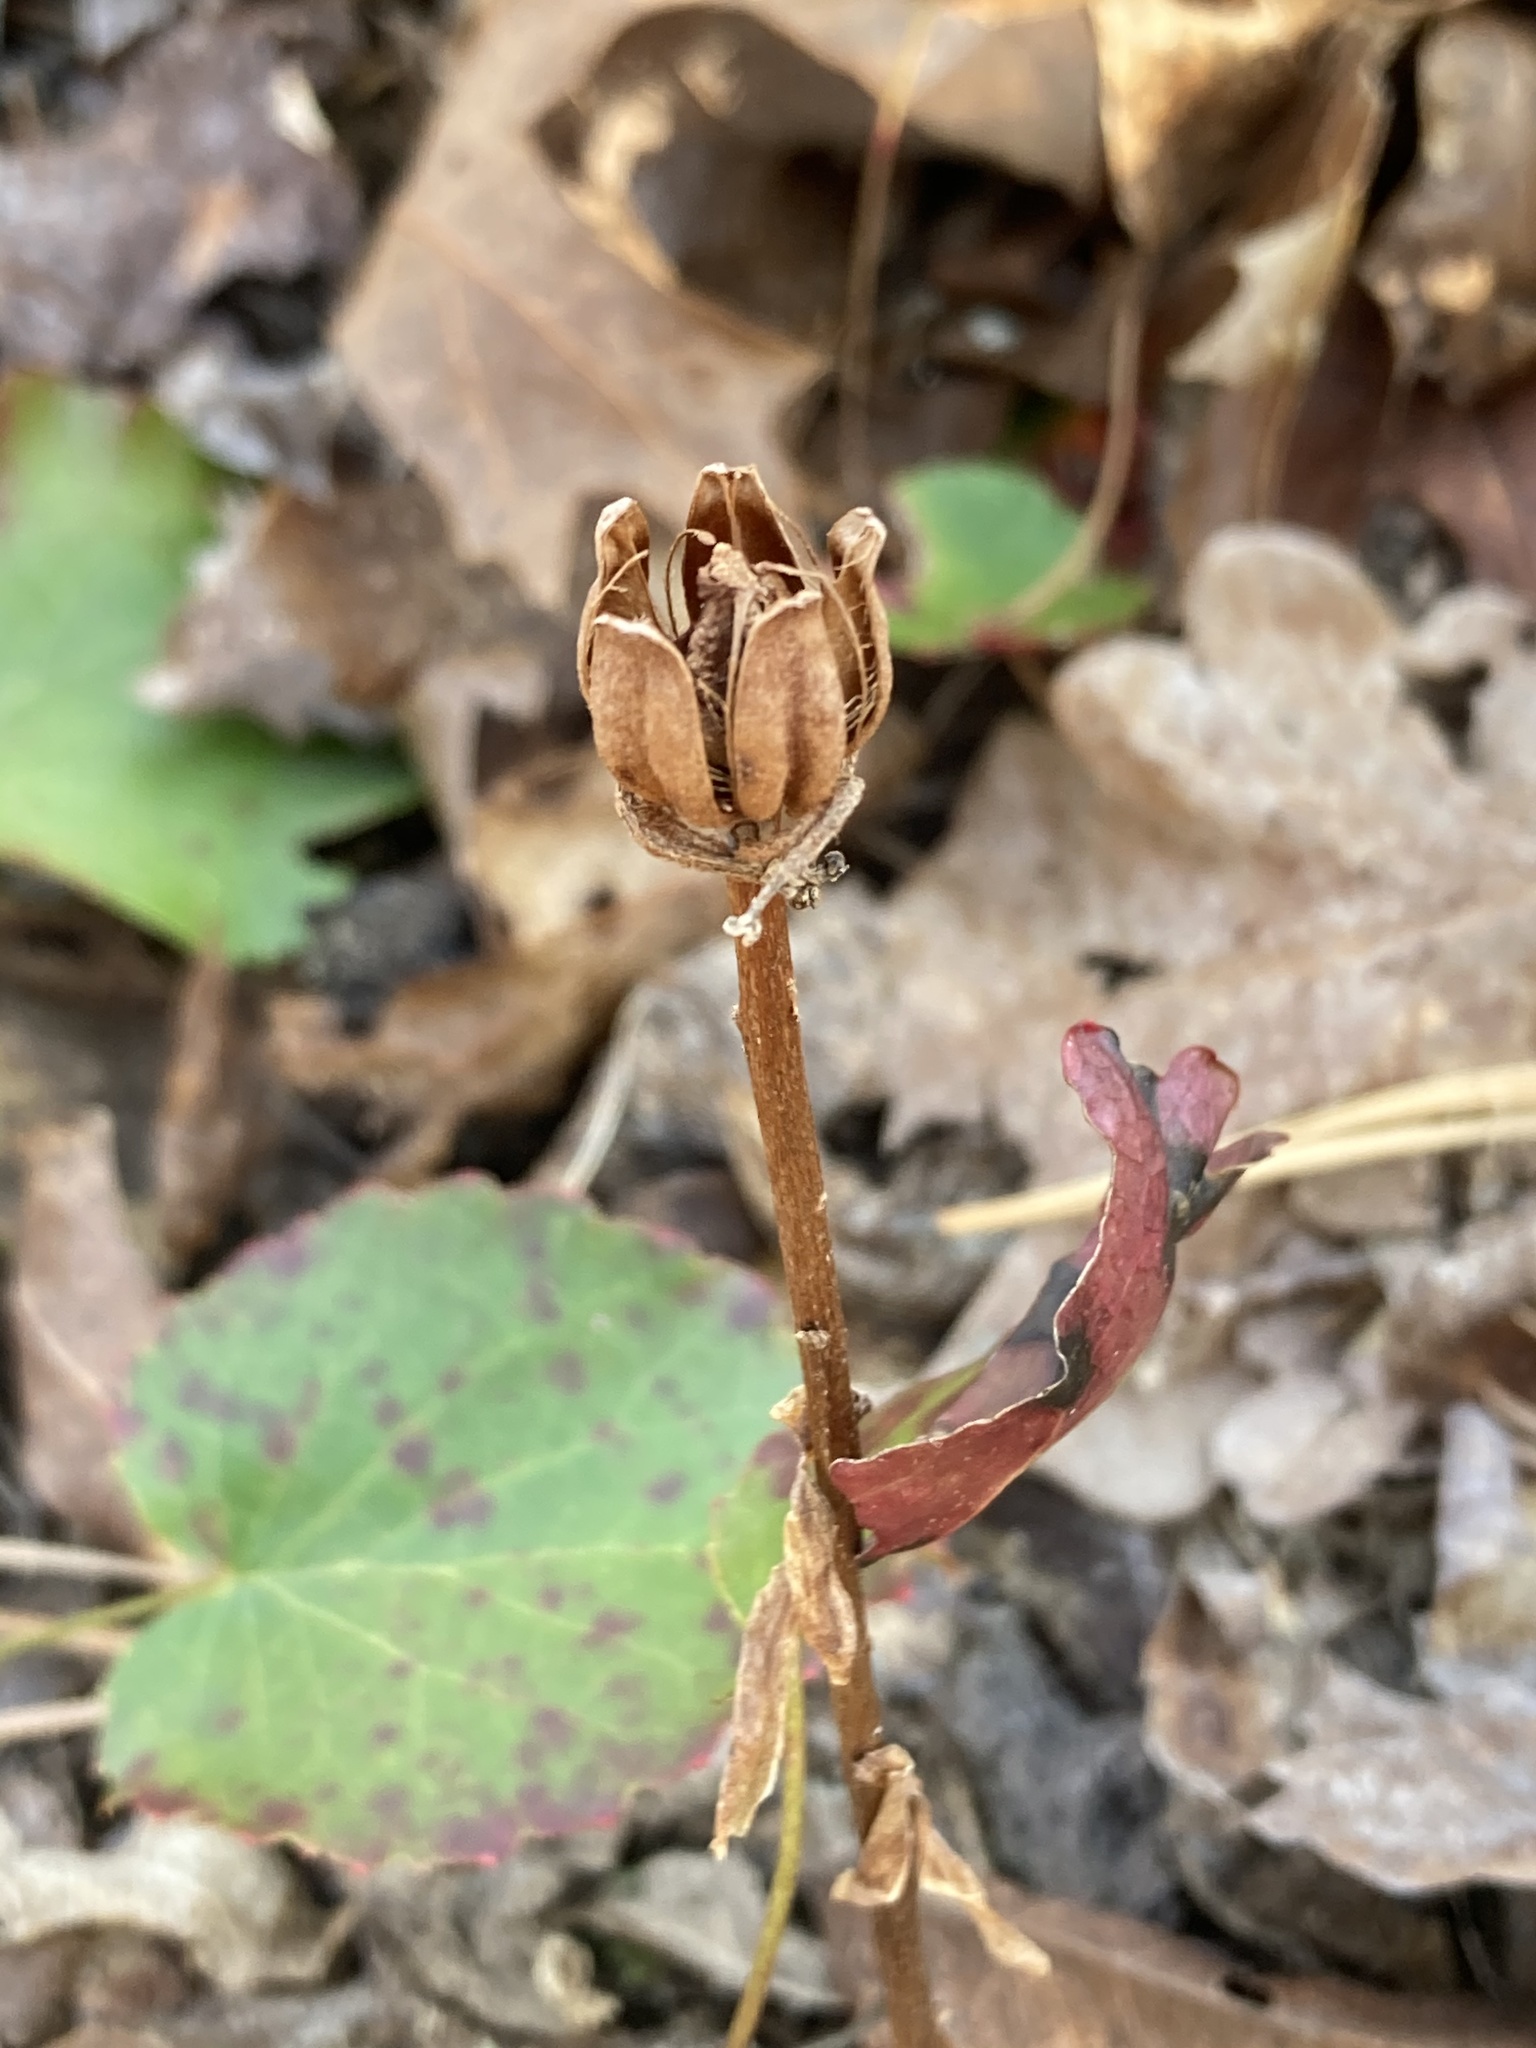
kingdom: Plantae
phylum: Tracheophyta
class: Magnoliopsida
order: Ericales
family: Ericaceae
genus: Monotropa
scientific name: Monotropa uniflora
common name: Convulsion root
